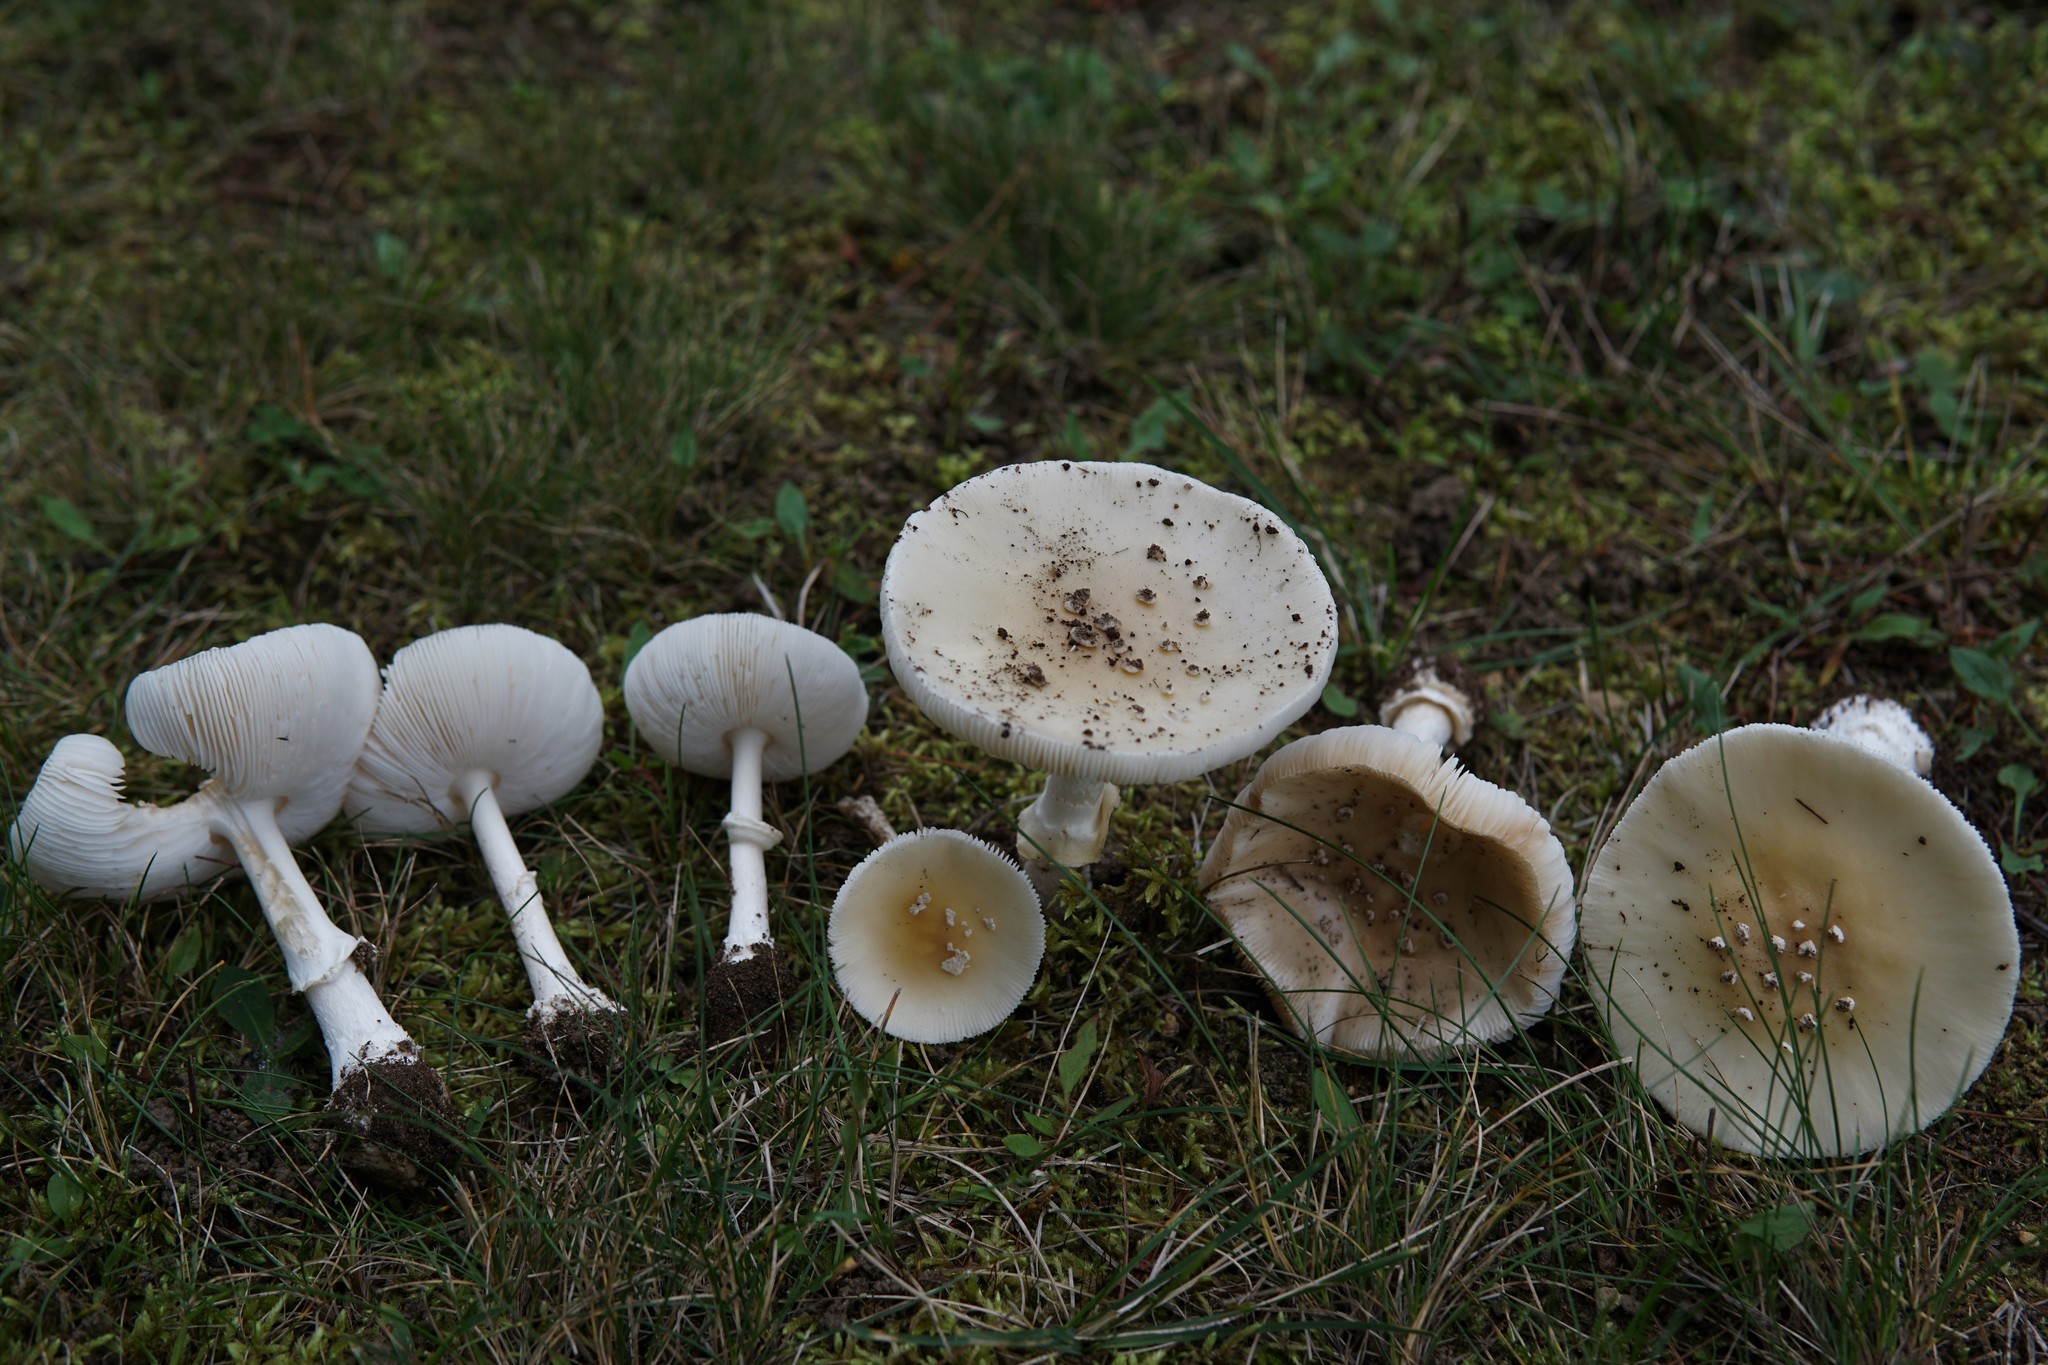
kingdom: Fungi
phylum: Basidiomycota
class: Agaricomycetes
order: Agaricales
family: Amanitaceae
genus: Amanita
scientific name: Amanita multisquamosa
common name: Small funnel-veil amanita
